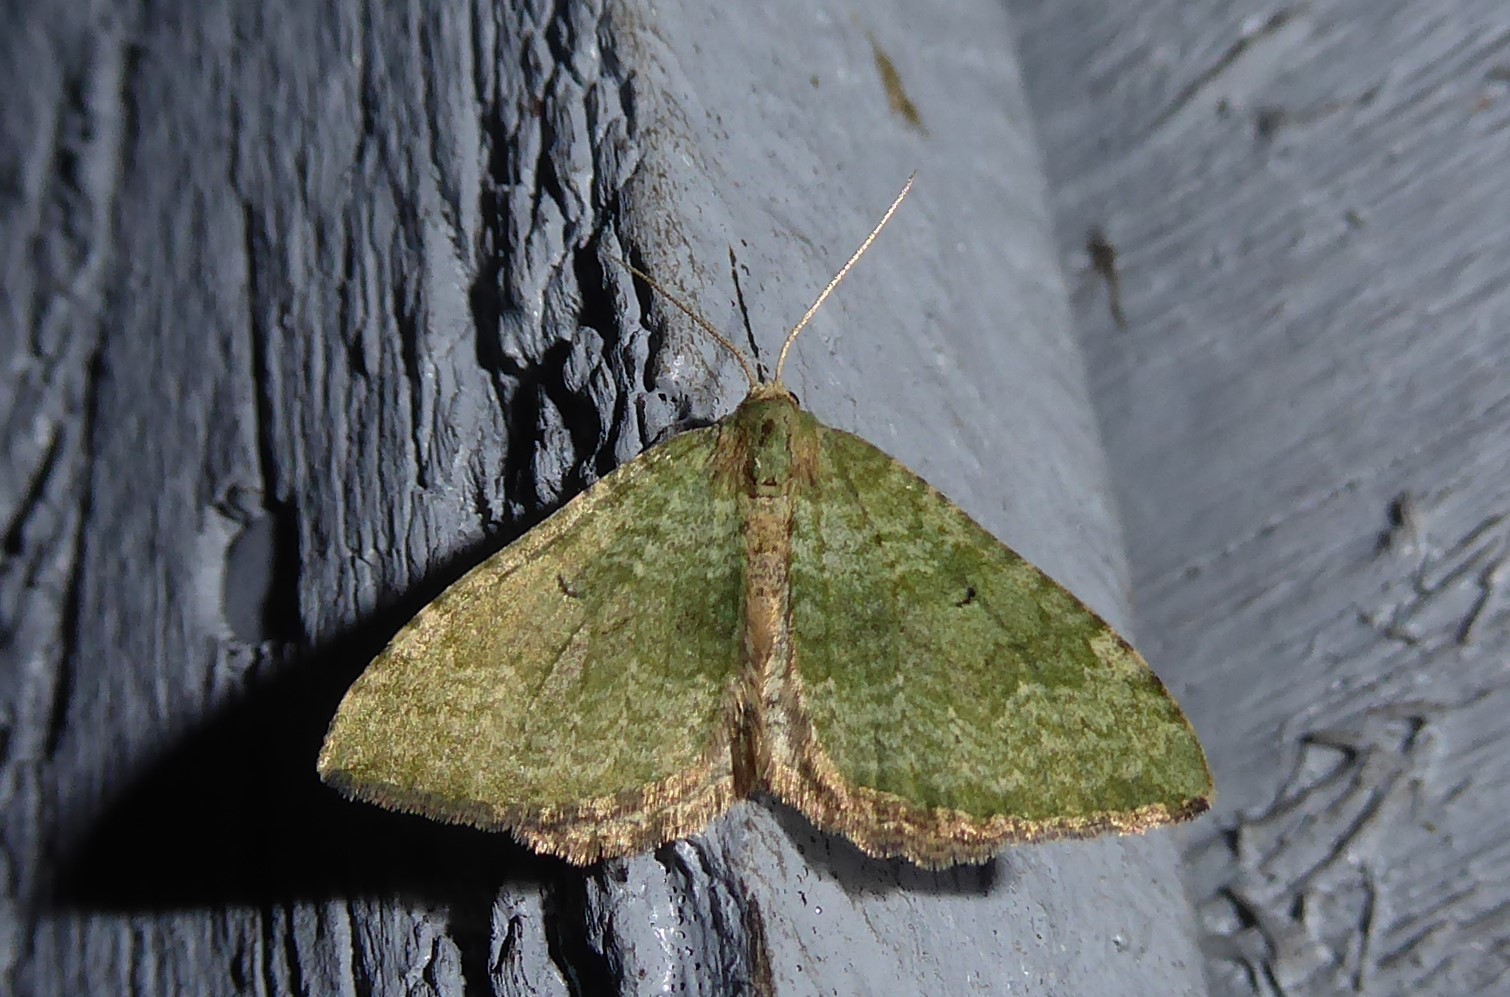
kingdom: Animalia
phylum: Arthropoda
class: Insecta
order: Lepidoptera
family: Geometridae
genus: Epyaxa
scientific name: Epyaxa rosearia
